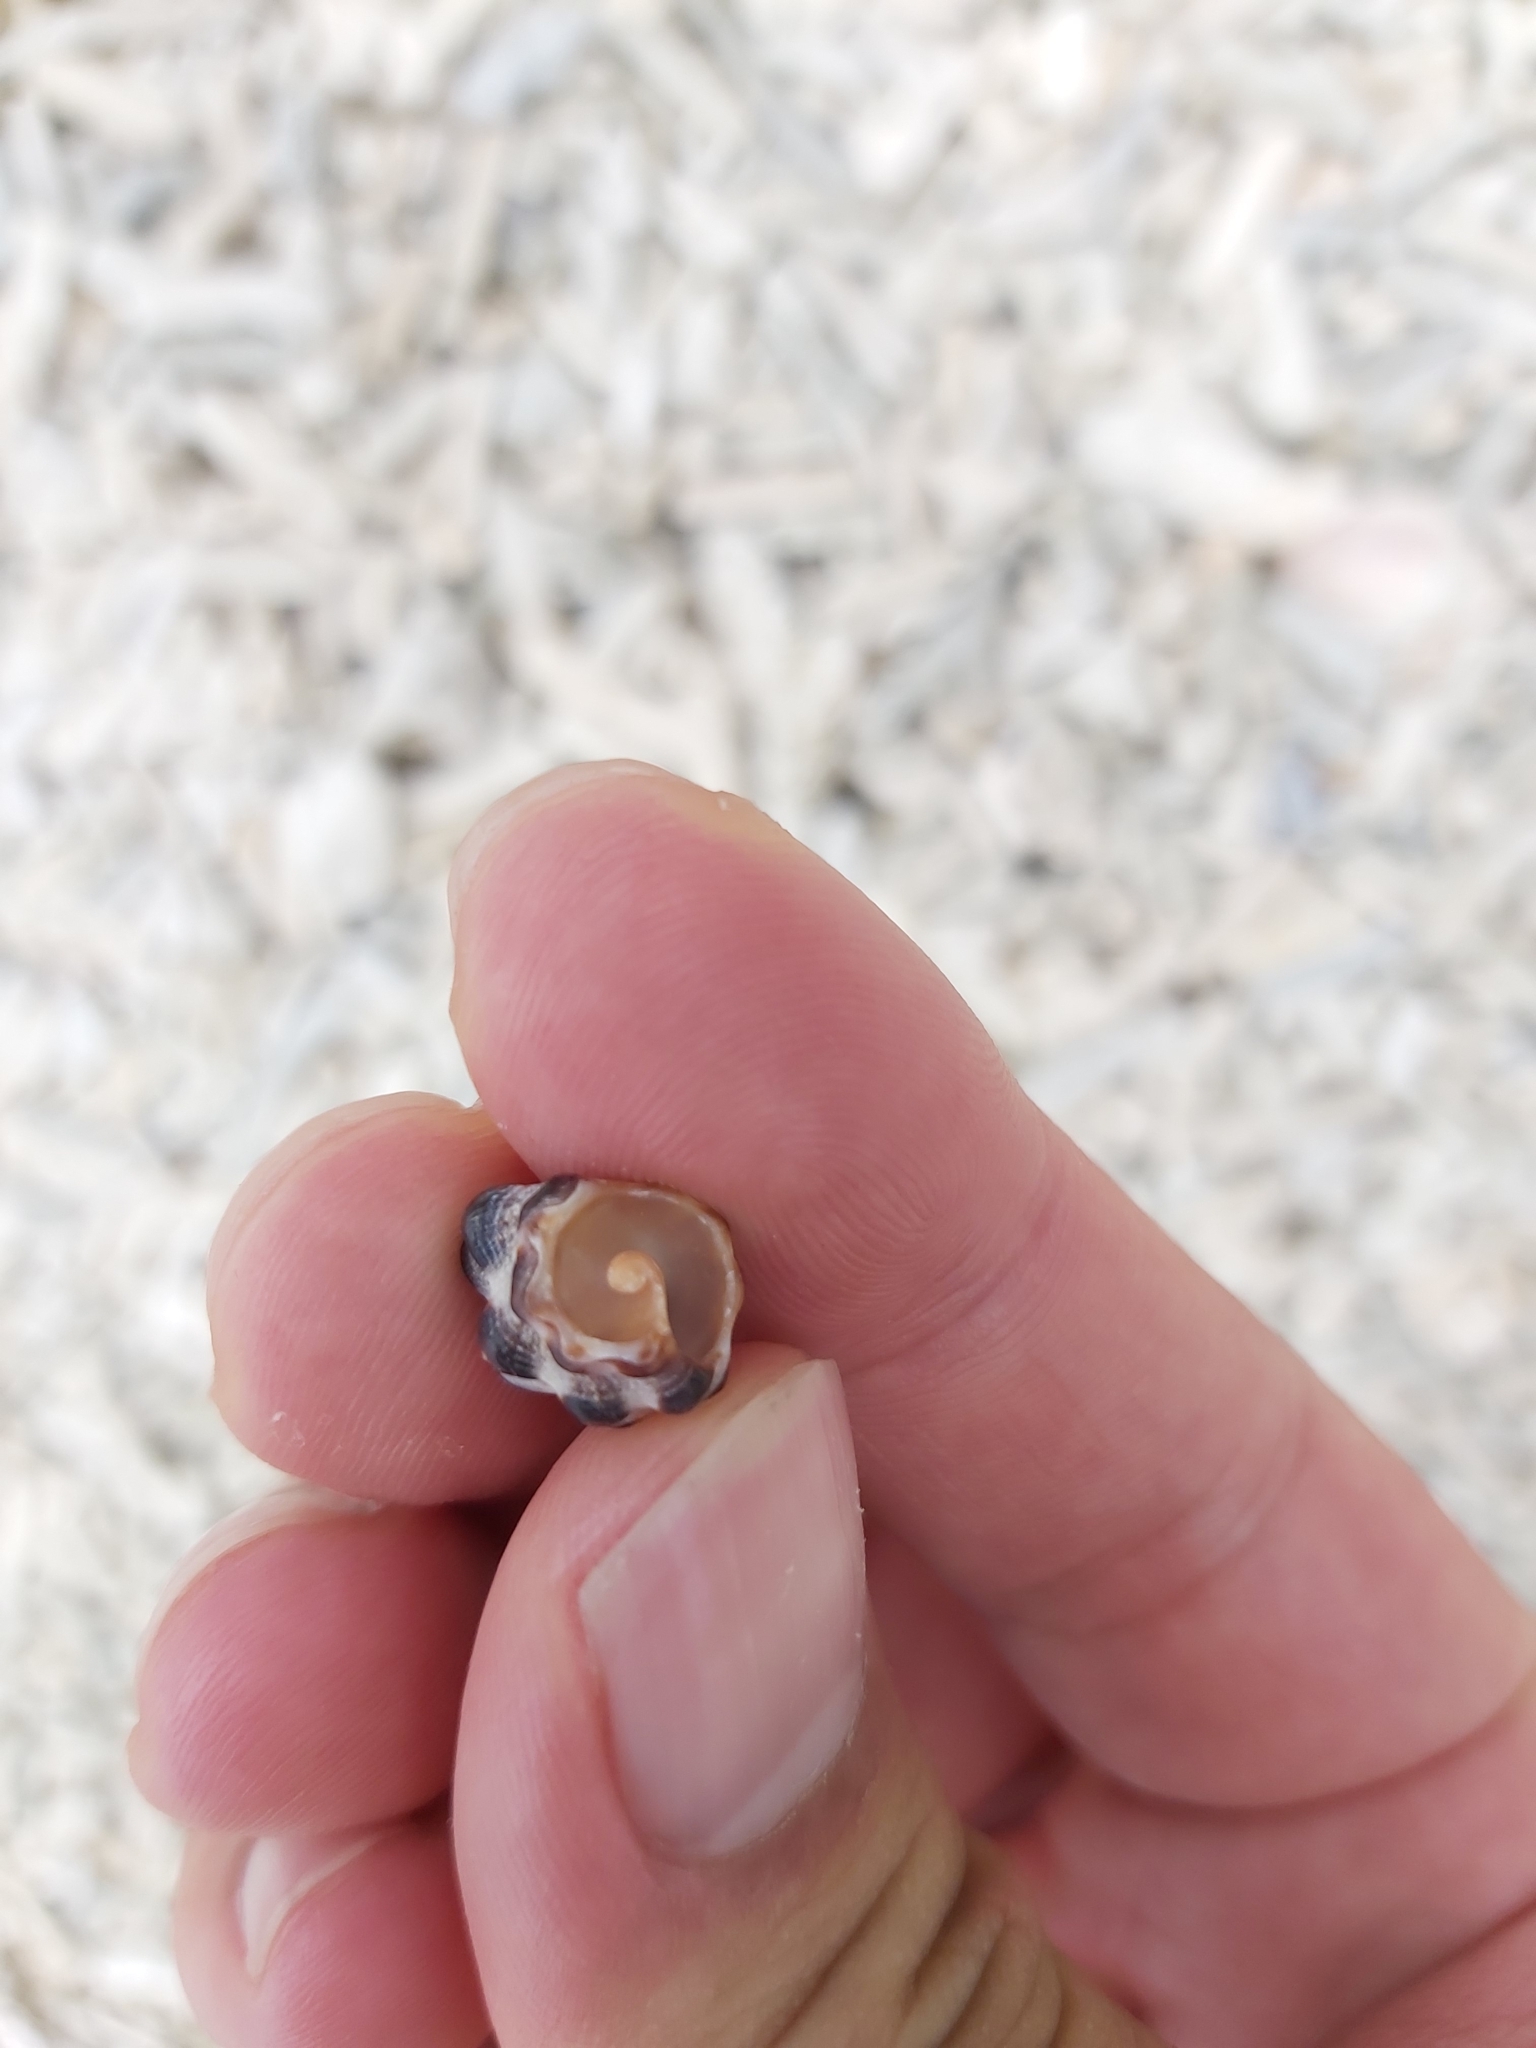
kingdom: Animalia
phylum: Mollusca
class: Gastropoda
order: Neogastropoda
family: Muricidae
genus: Tenguella
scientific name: Tenguella marginalba
